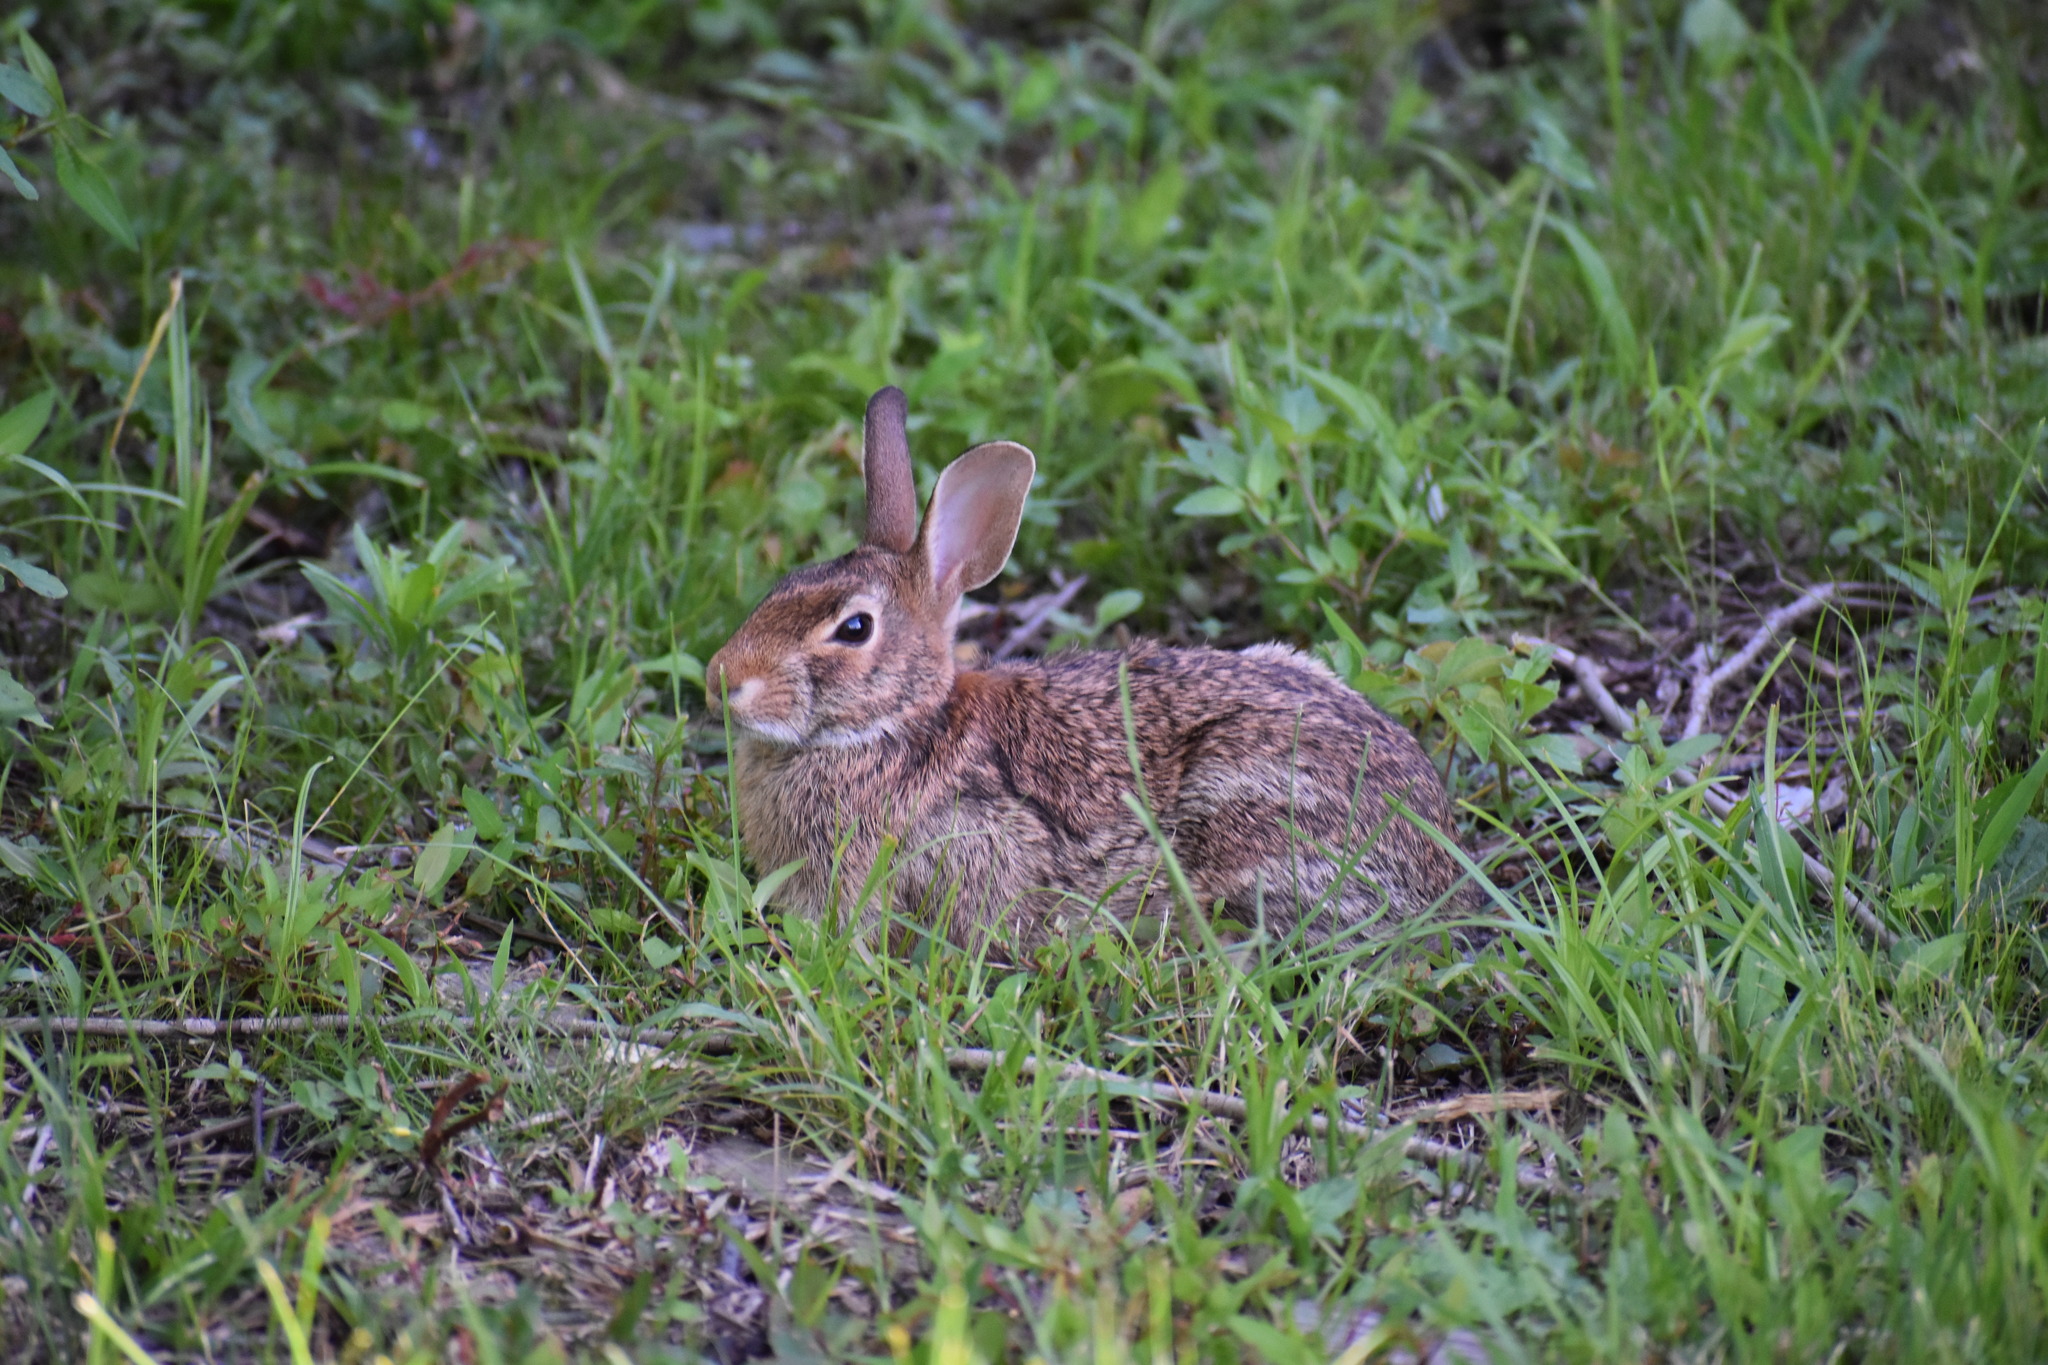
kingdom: Animalia
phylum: Chordata
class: Mammalia
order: Lagomorpha
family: Leporidae
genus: Sylvilagus
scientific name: Sylvilagus floridanus
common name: Eastern cottontail
